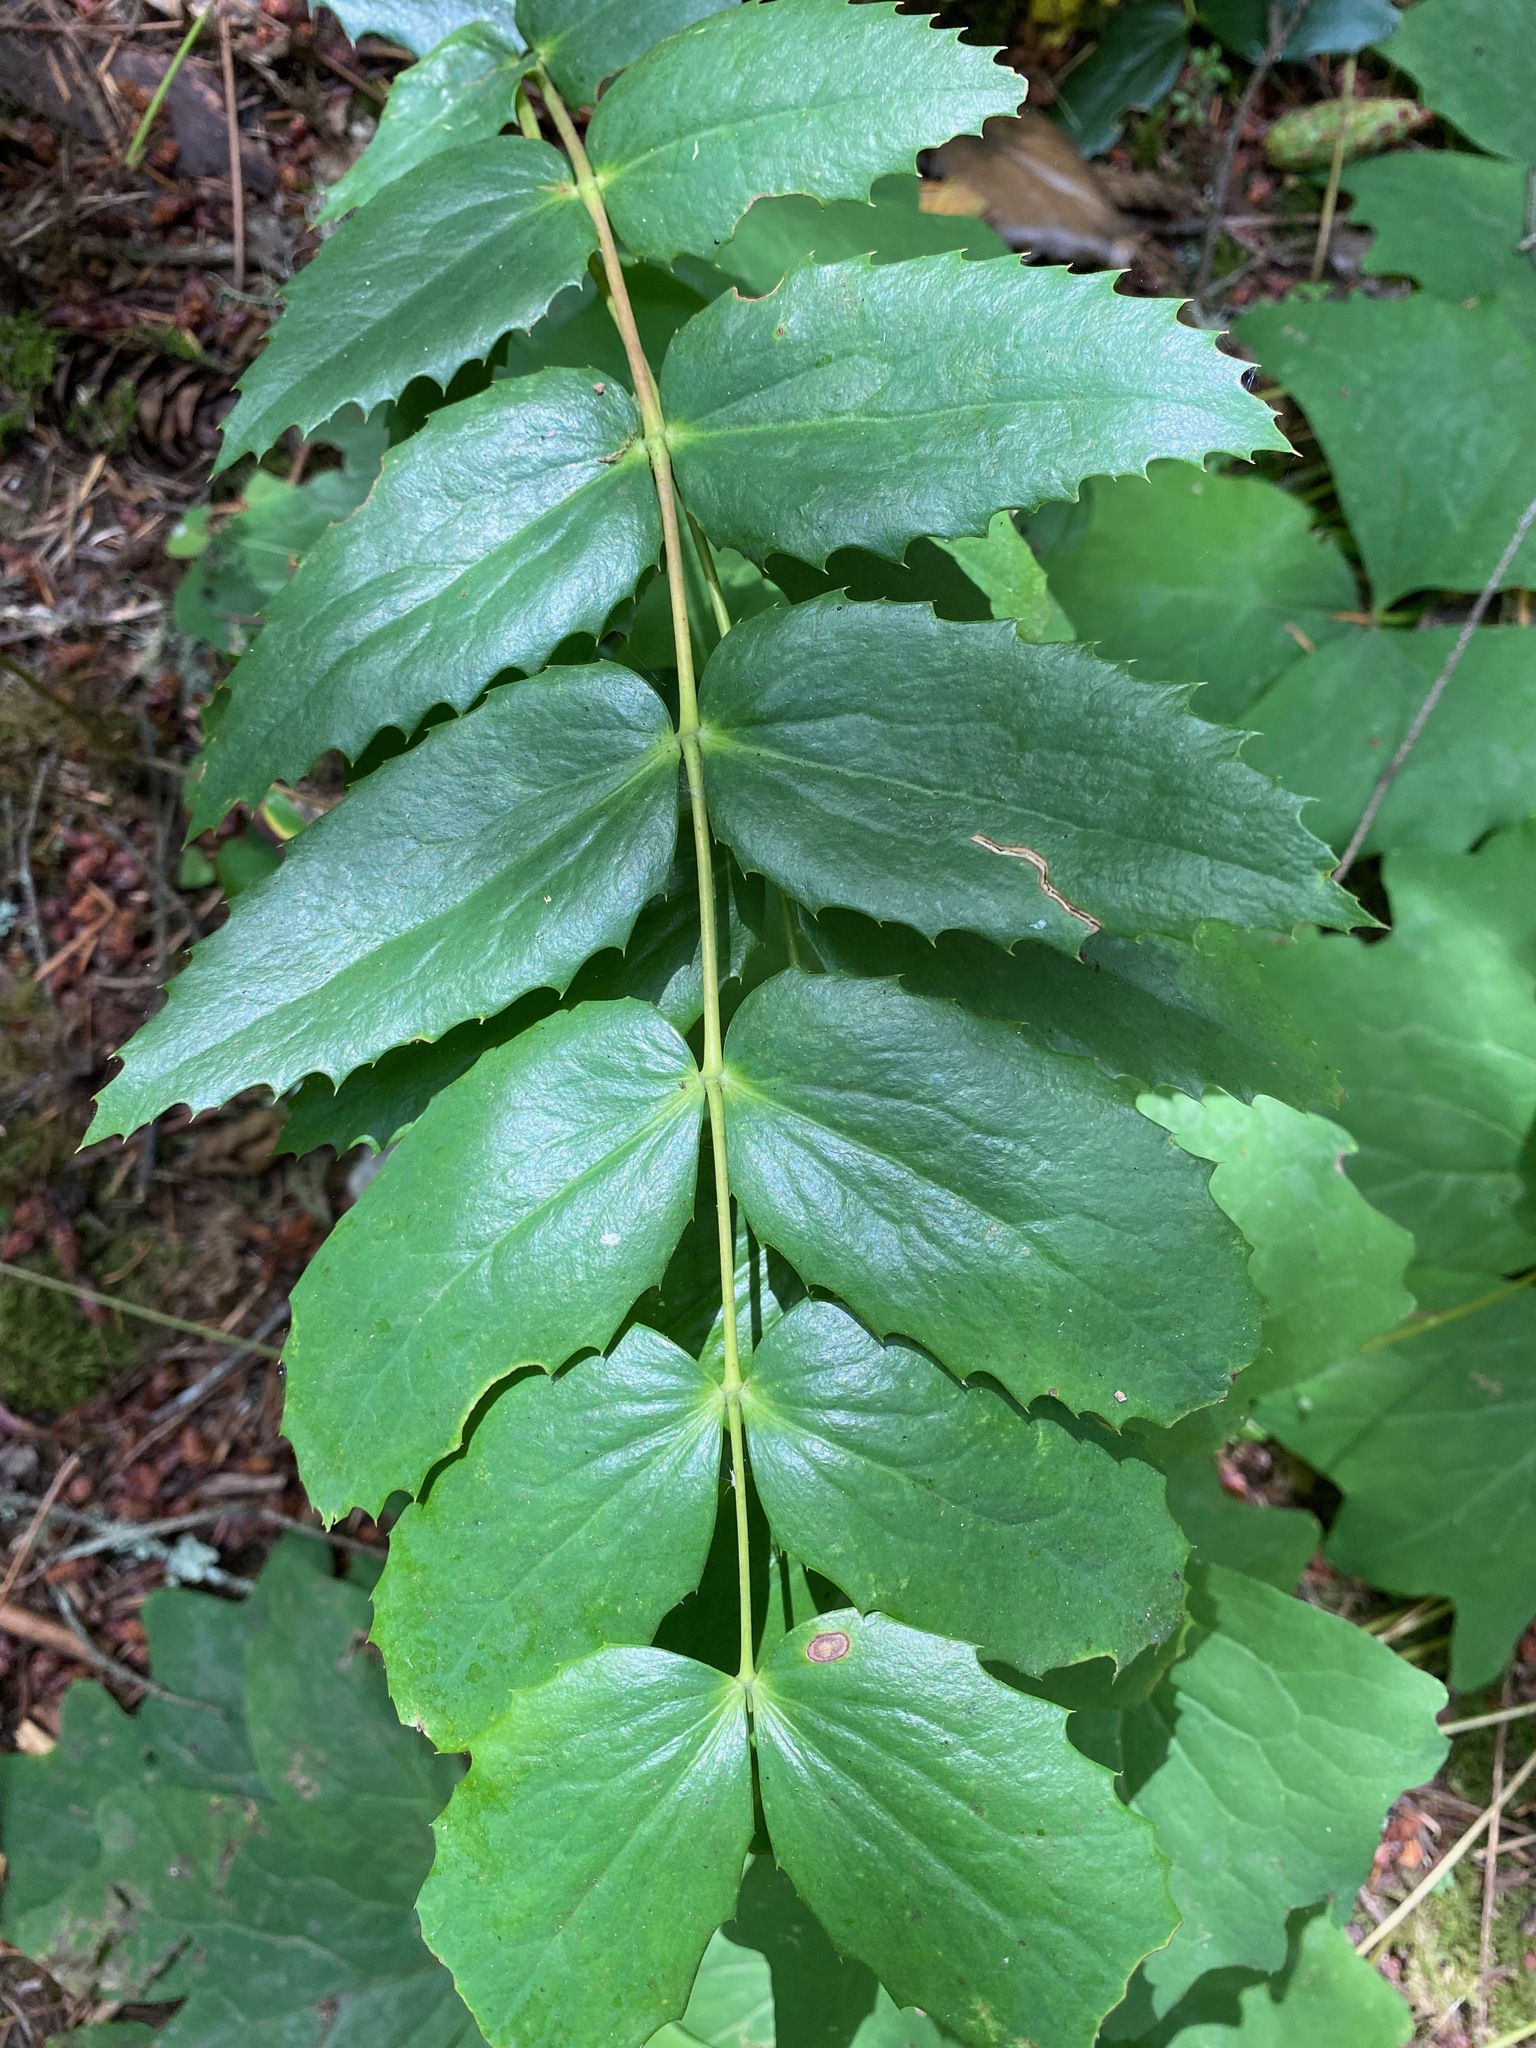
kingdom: Plantae
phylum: Tracheophyta
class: Magnoliopsida
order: Ranunculales
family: Berberidaceae
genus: Mahonia
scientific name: Mahonia nervosa
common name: Cascade oregon-grape
